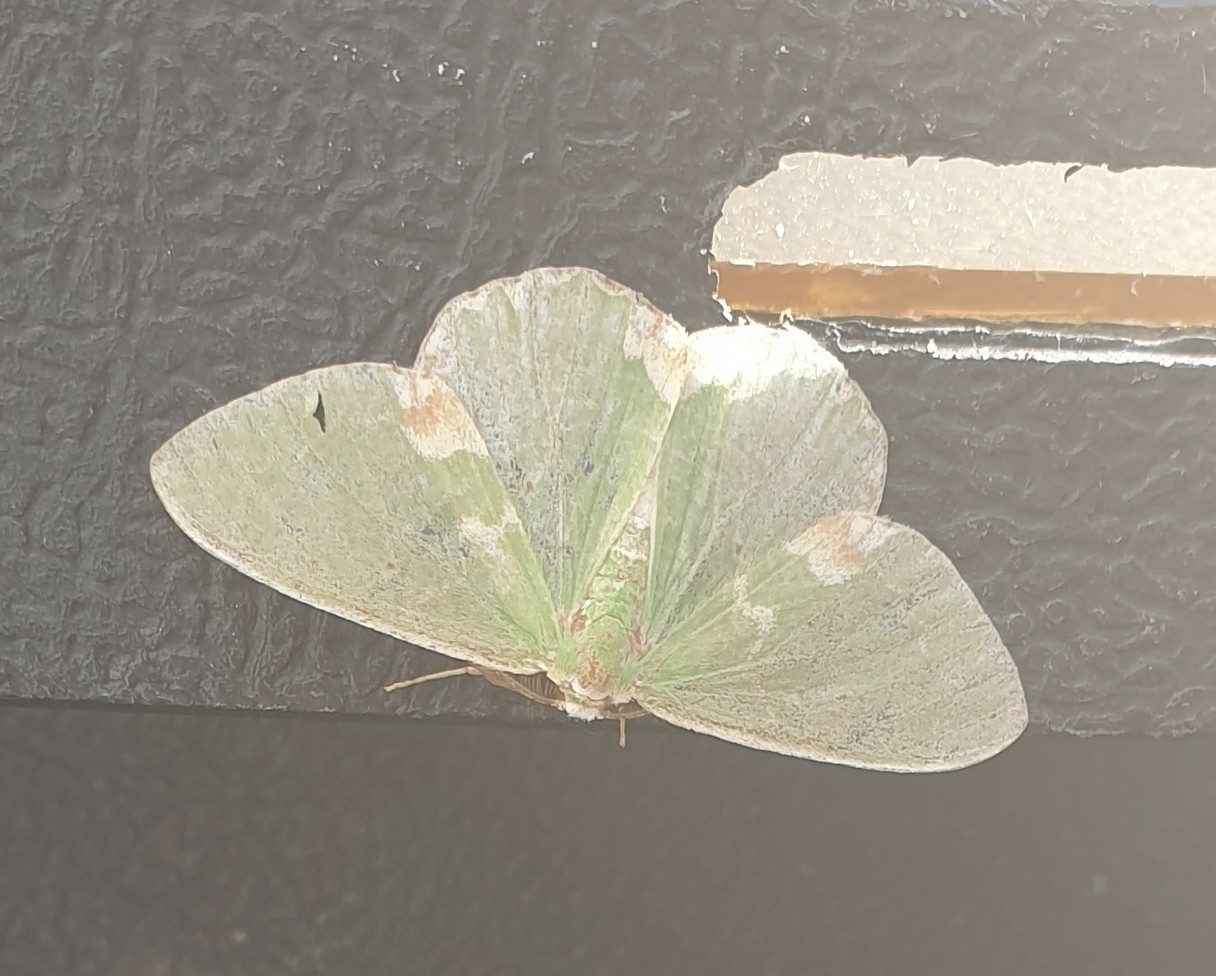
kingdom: Animalia
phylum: Arthropoda
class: Insecta
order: Lepidoptera
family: Geometridae
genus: Comibaena
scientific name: Comibaena bajularia
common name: Blotched emerald
